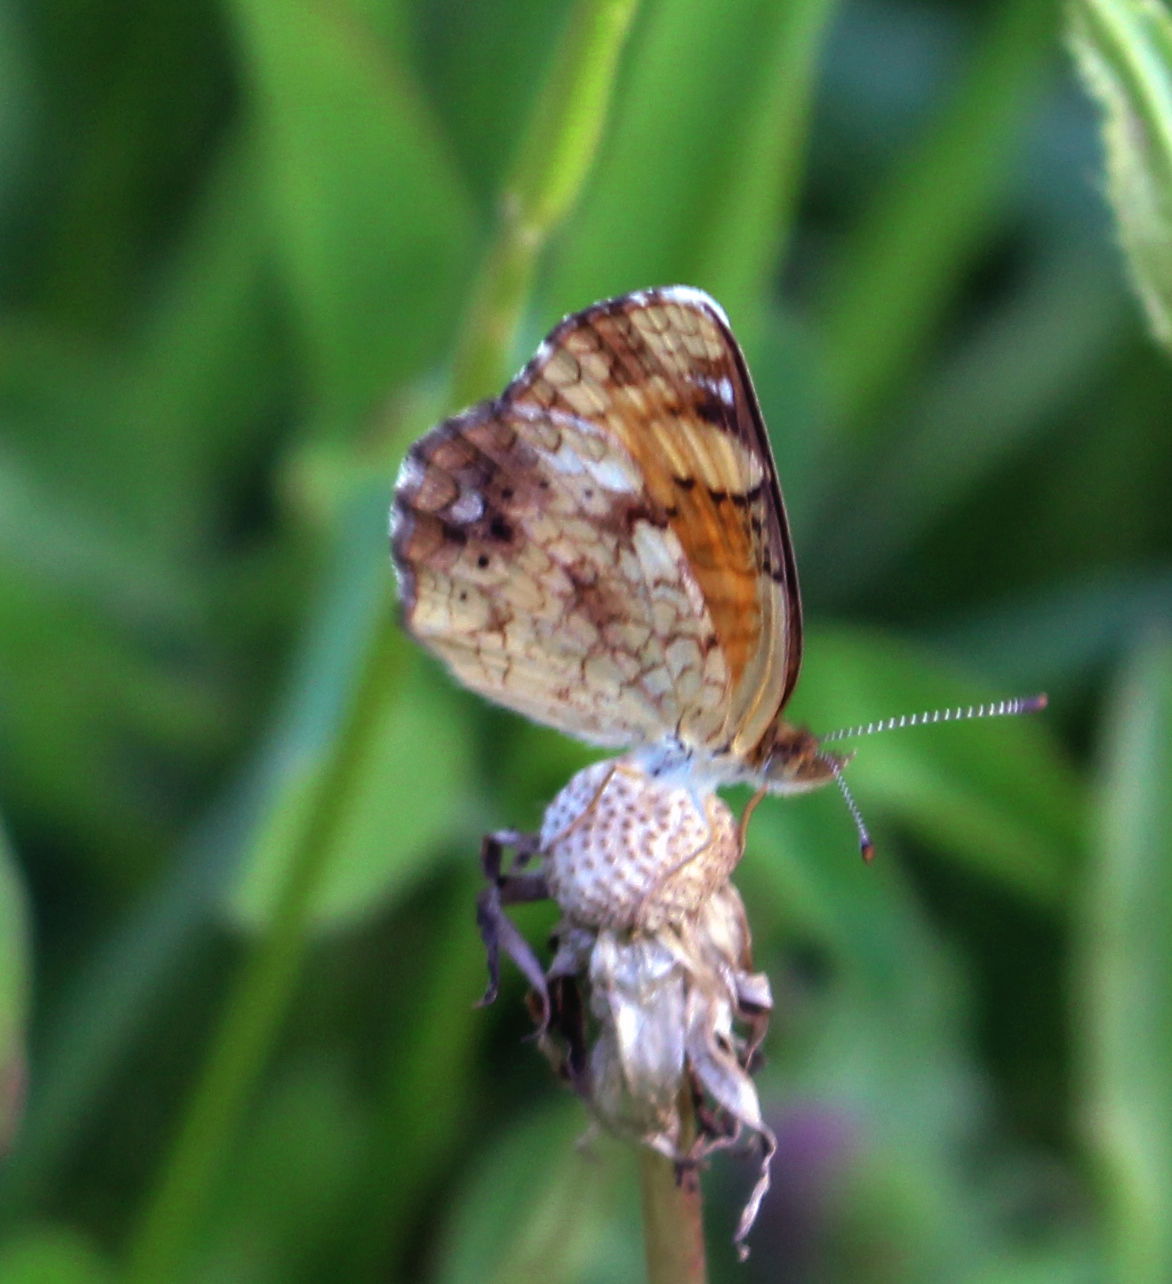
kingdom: Animalia
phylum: Arthropoda
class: Insecta
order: Lepidoptera
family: Nymphalidae
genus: Phyciodes
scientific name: Phyciodes tharos
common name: Pearl crescent
